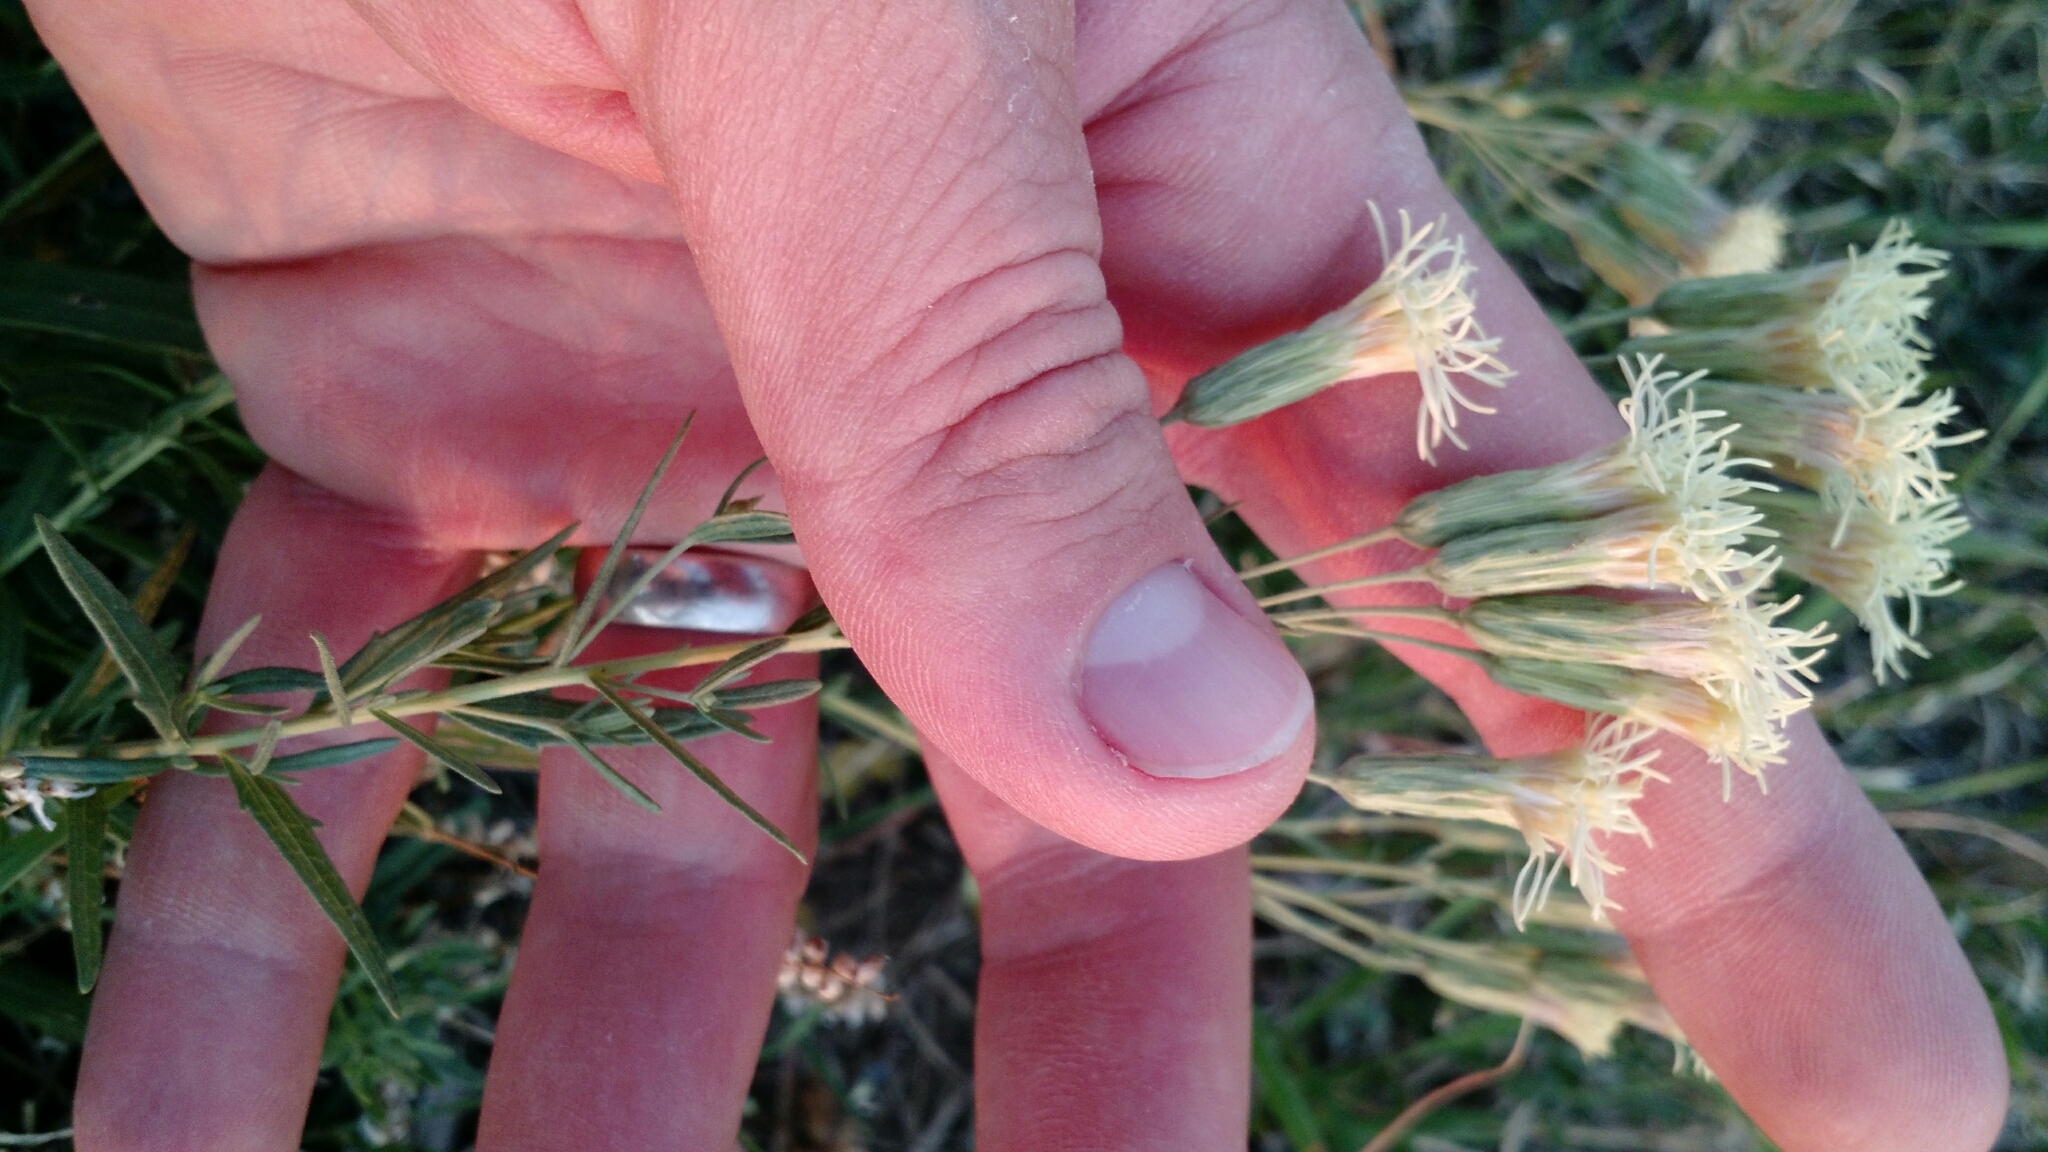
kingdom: Plantae
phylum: Tracheophyta
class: Magnoliopsida
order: Asterales
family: Asteraceae
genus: Brickellia
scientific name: Brickellia eupatorioides
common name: False boneset
